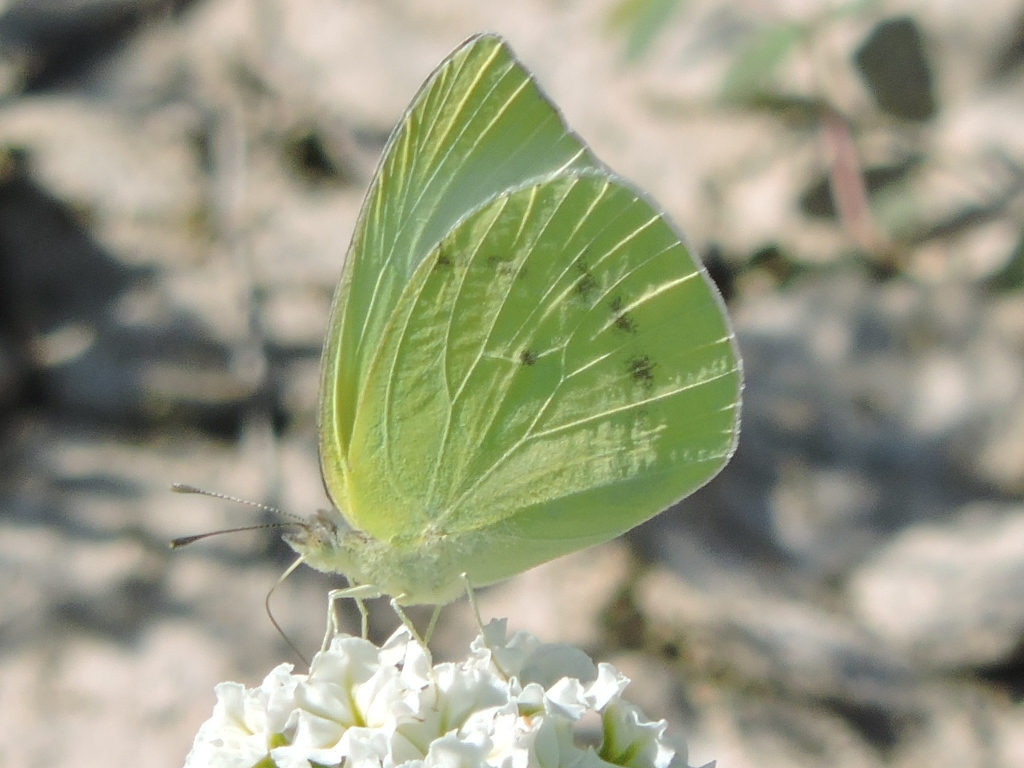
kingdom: Animalia
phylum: Arthropoda
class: Insecta
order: Lepidoptera
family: Pieridae
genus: Kricogonia
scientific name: Kricogonia lyside
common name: Guayacan sulphur,
